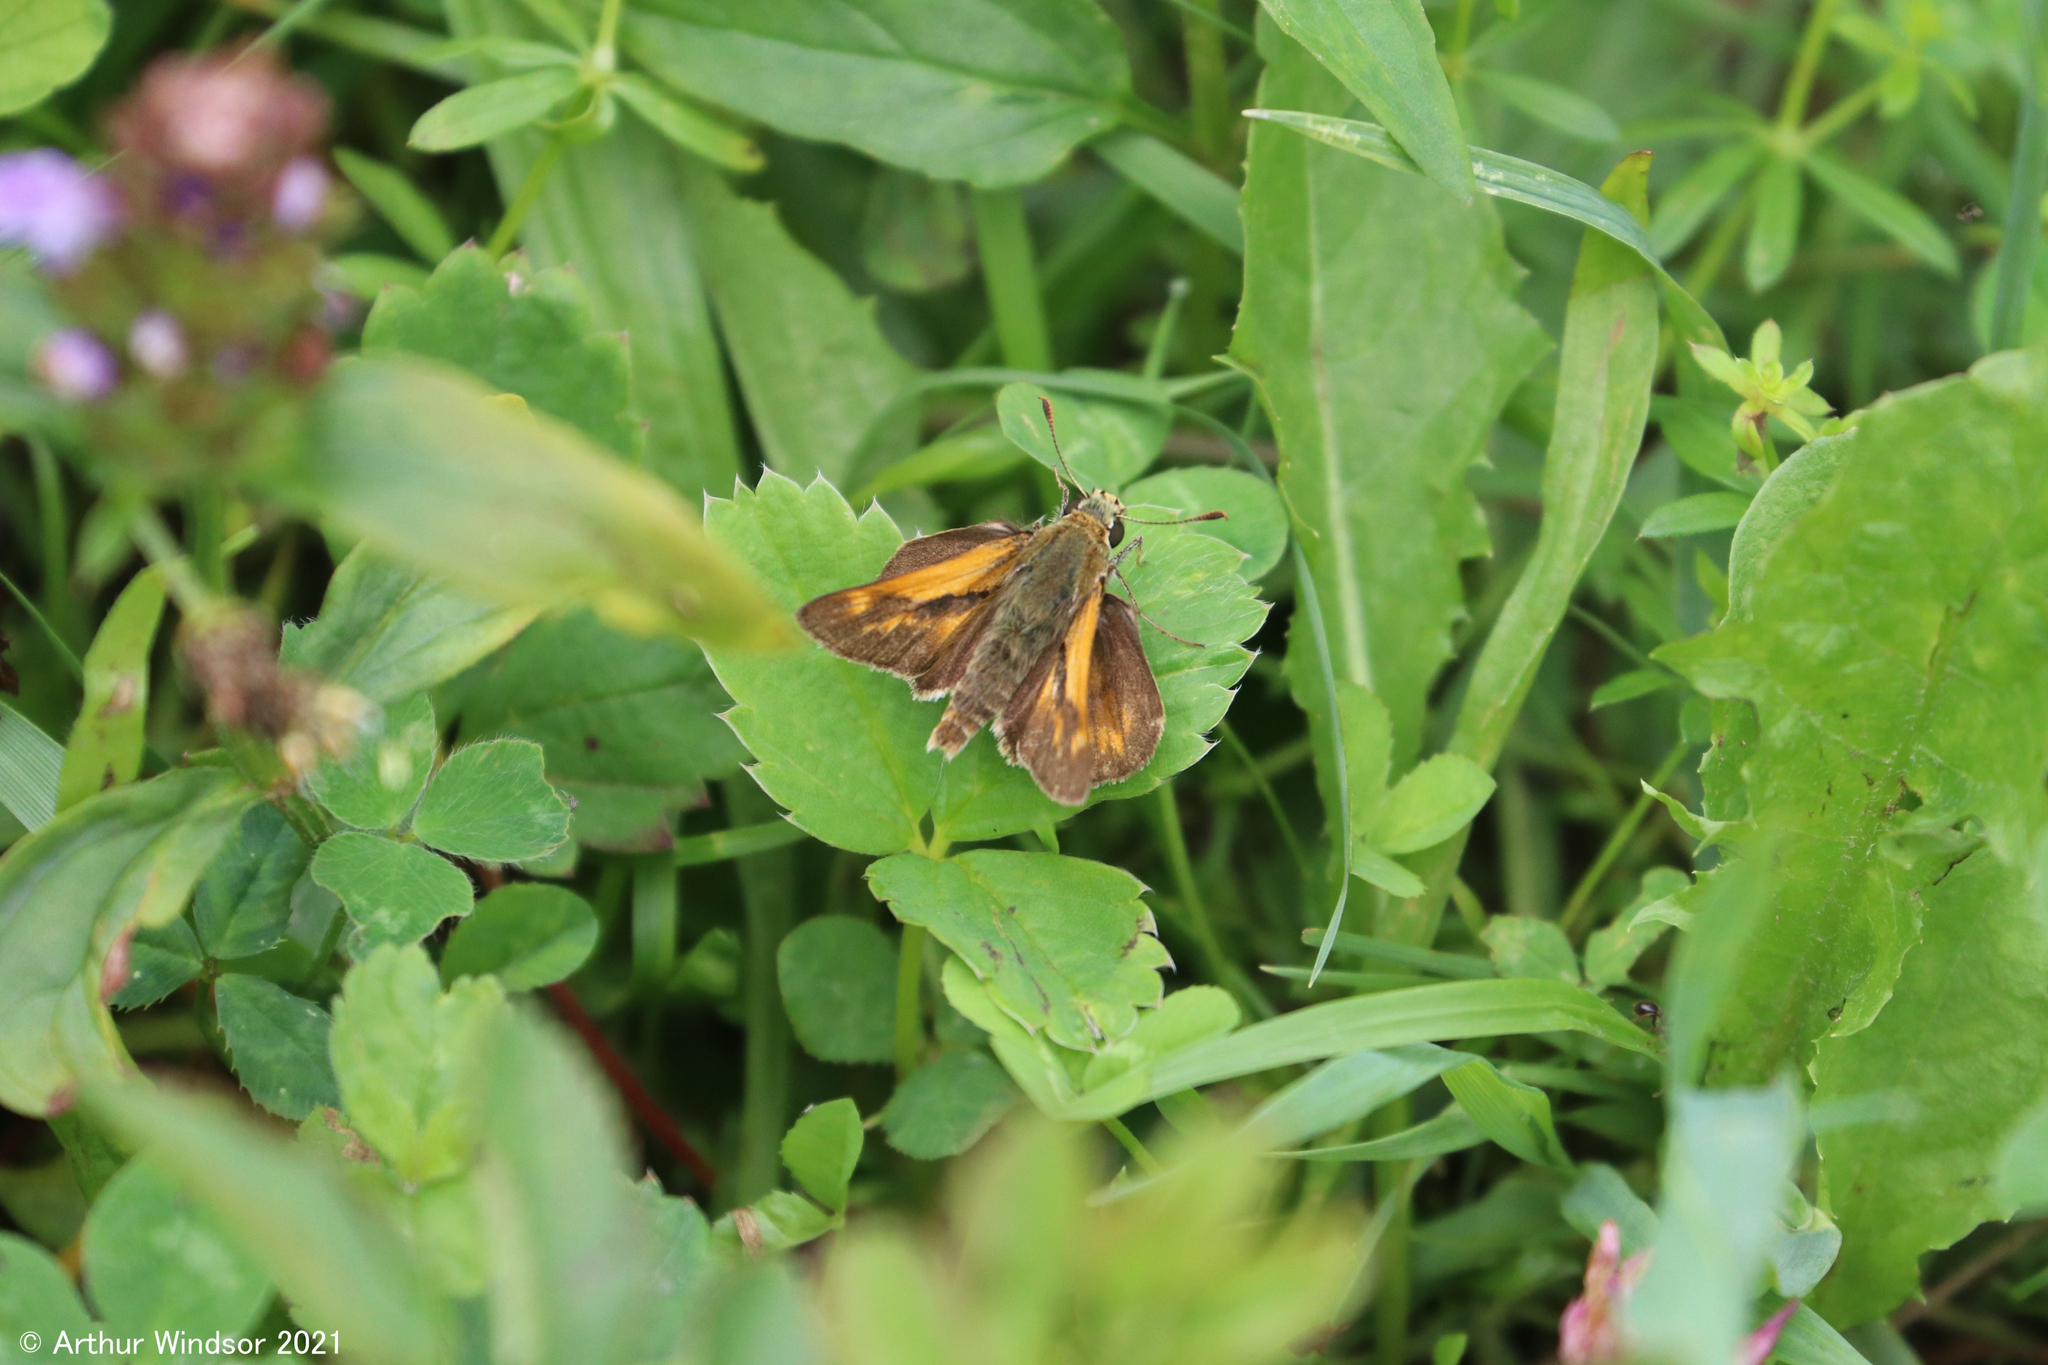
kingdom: Animalia
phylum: Arthropoda
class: Insecta
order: Lepidoptera
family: Hesperiidae
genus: Polites
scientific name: Polites mystic
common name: Long dash
